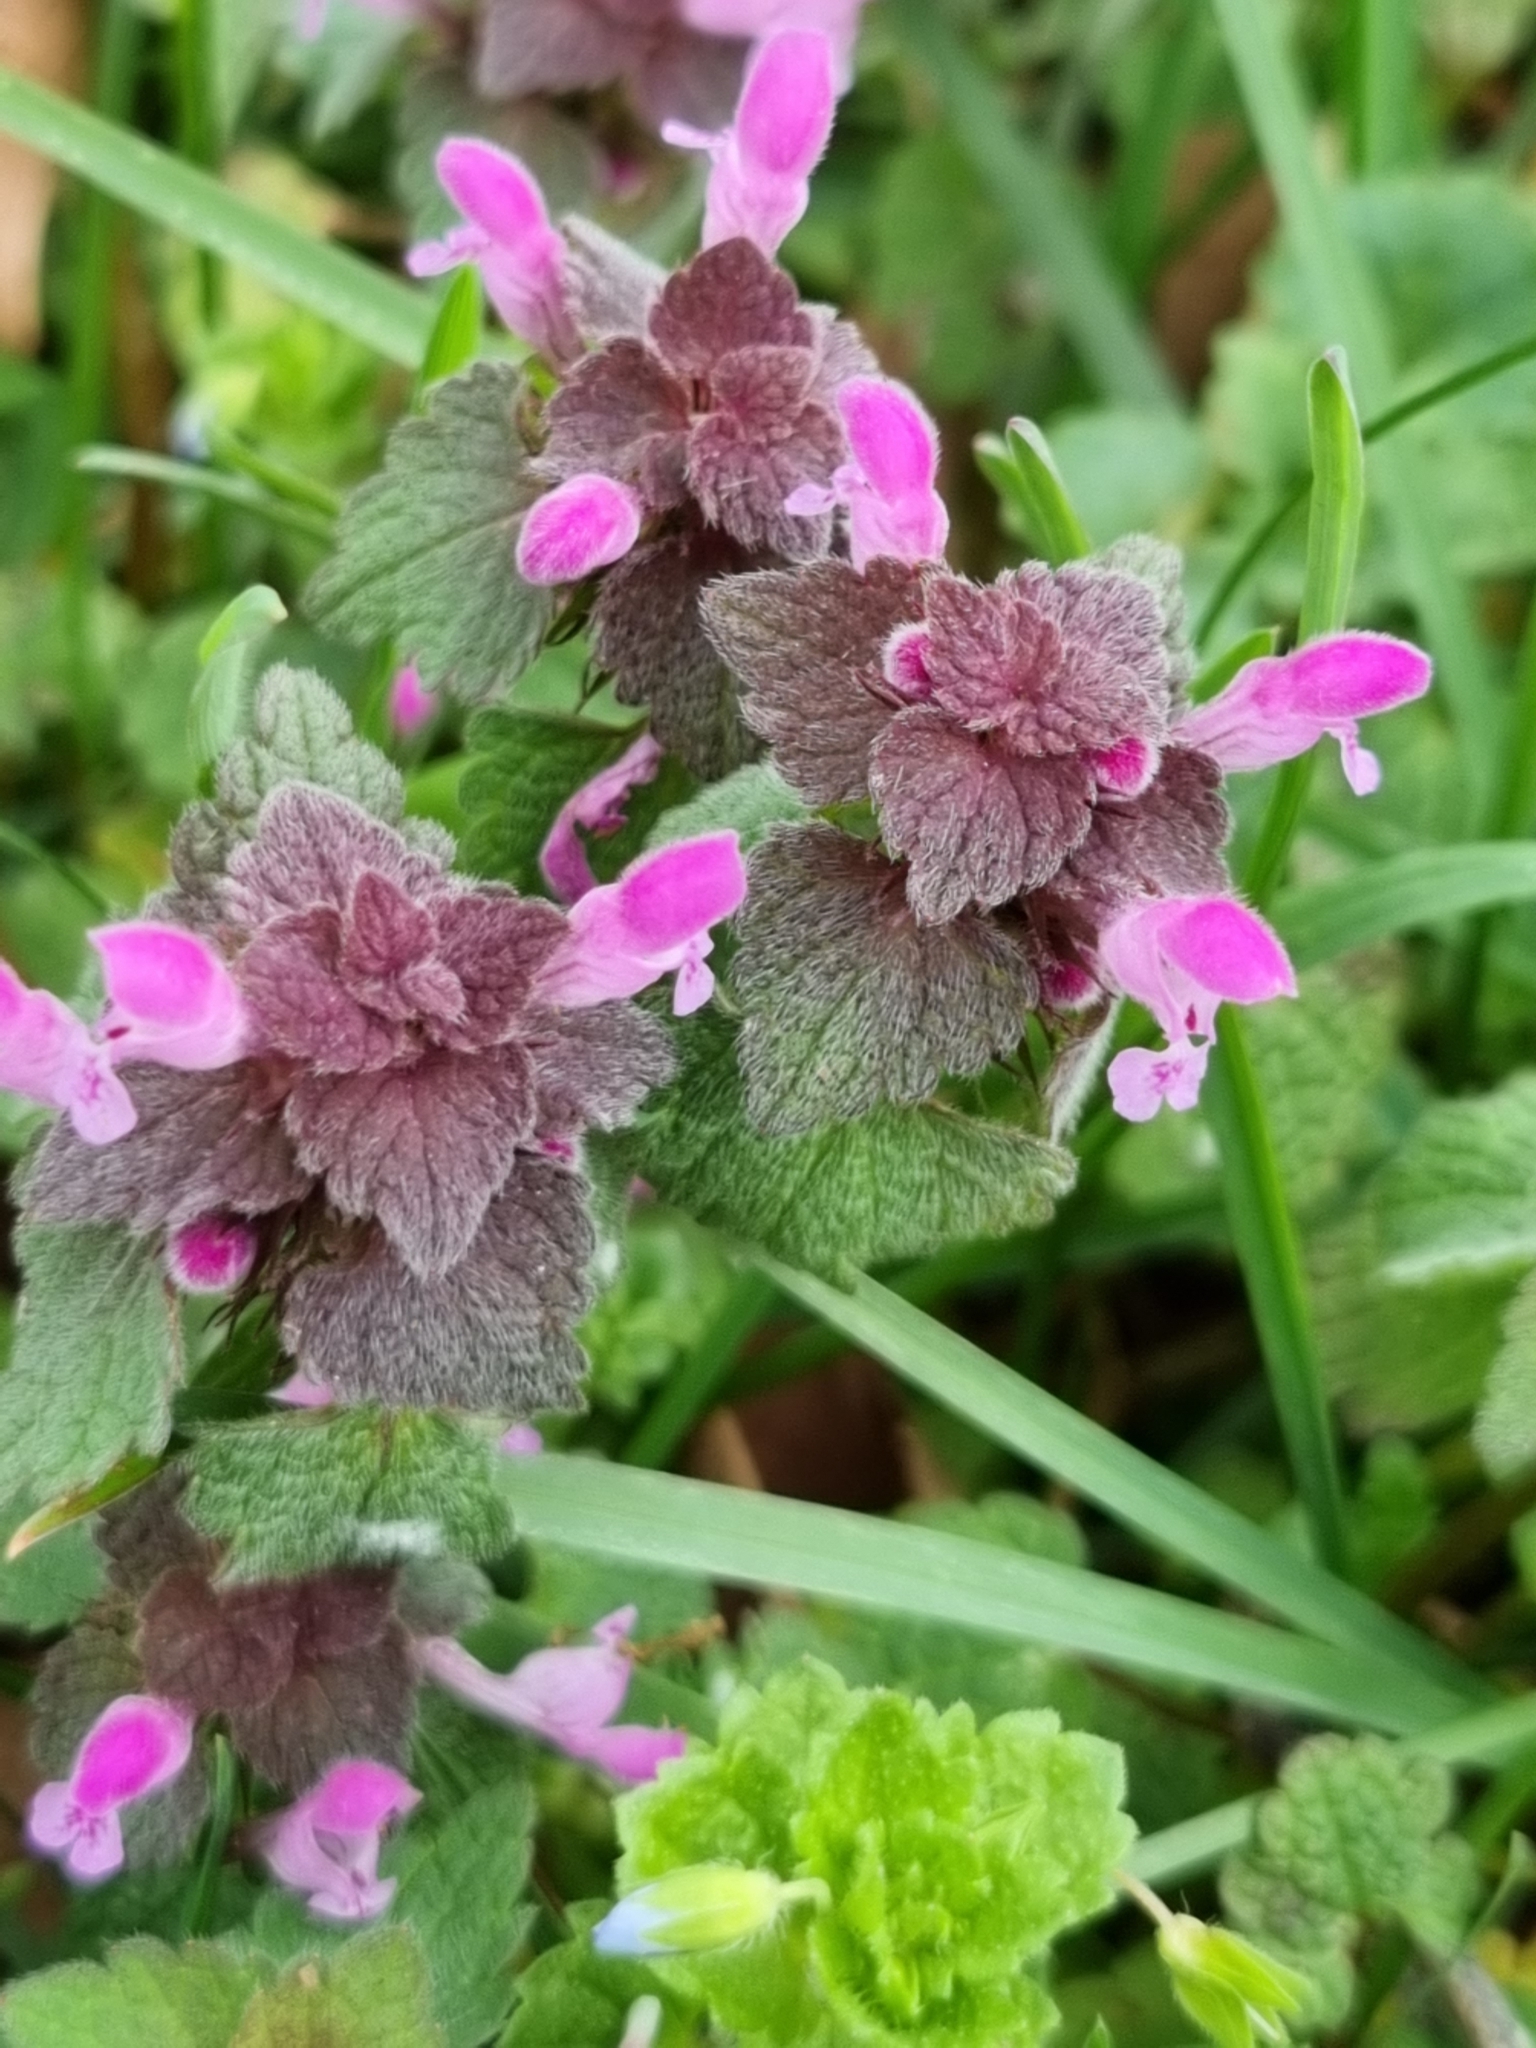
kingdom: Plantae
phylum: Tracheophyta
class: Magnoliopsida
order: Lamiales
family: Lamiaceae
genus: Lamium
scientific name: Lamium purpureum
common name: Red dead-nettle
